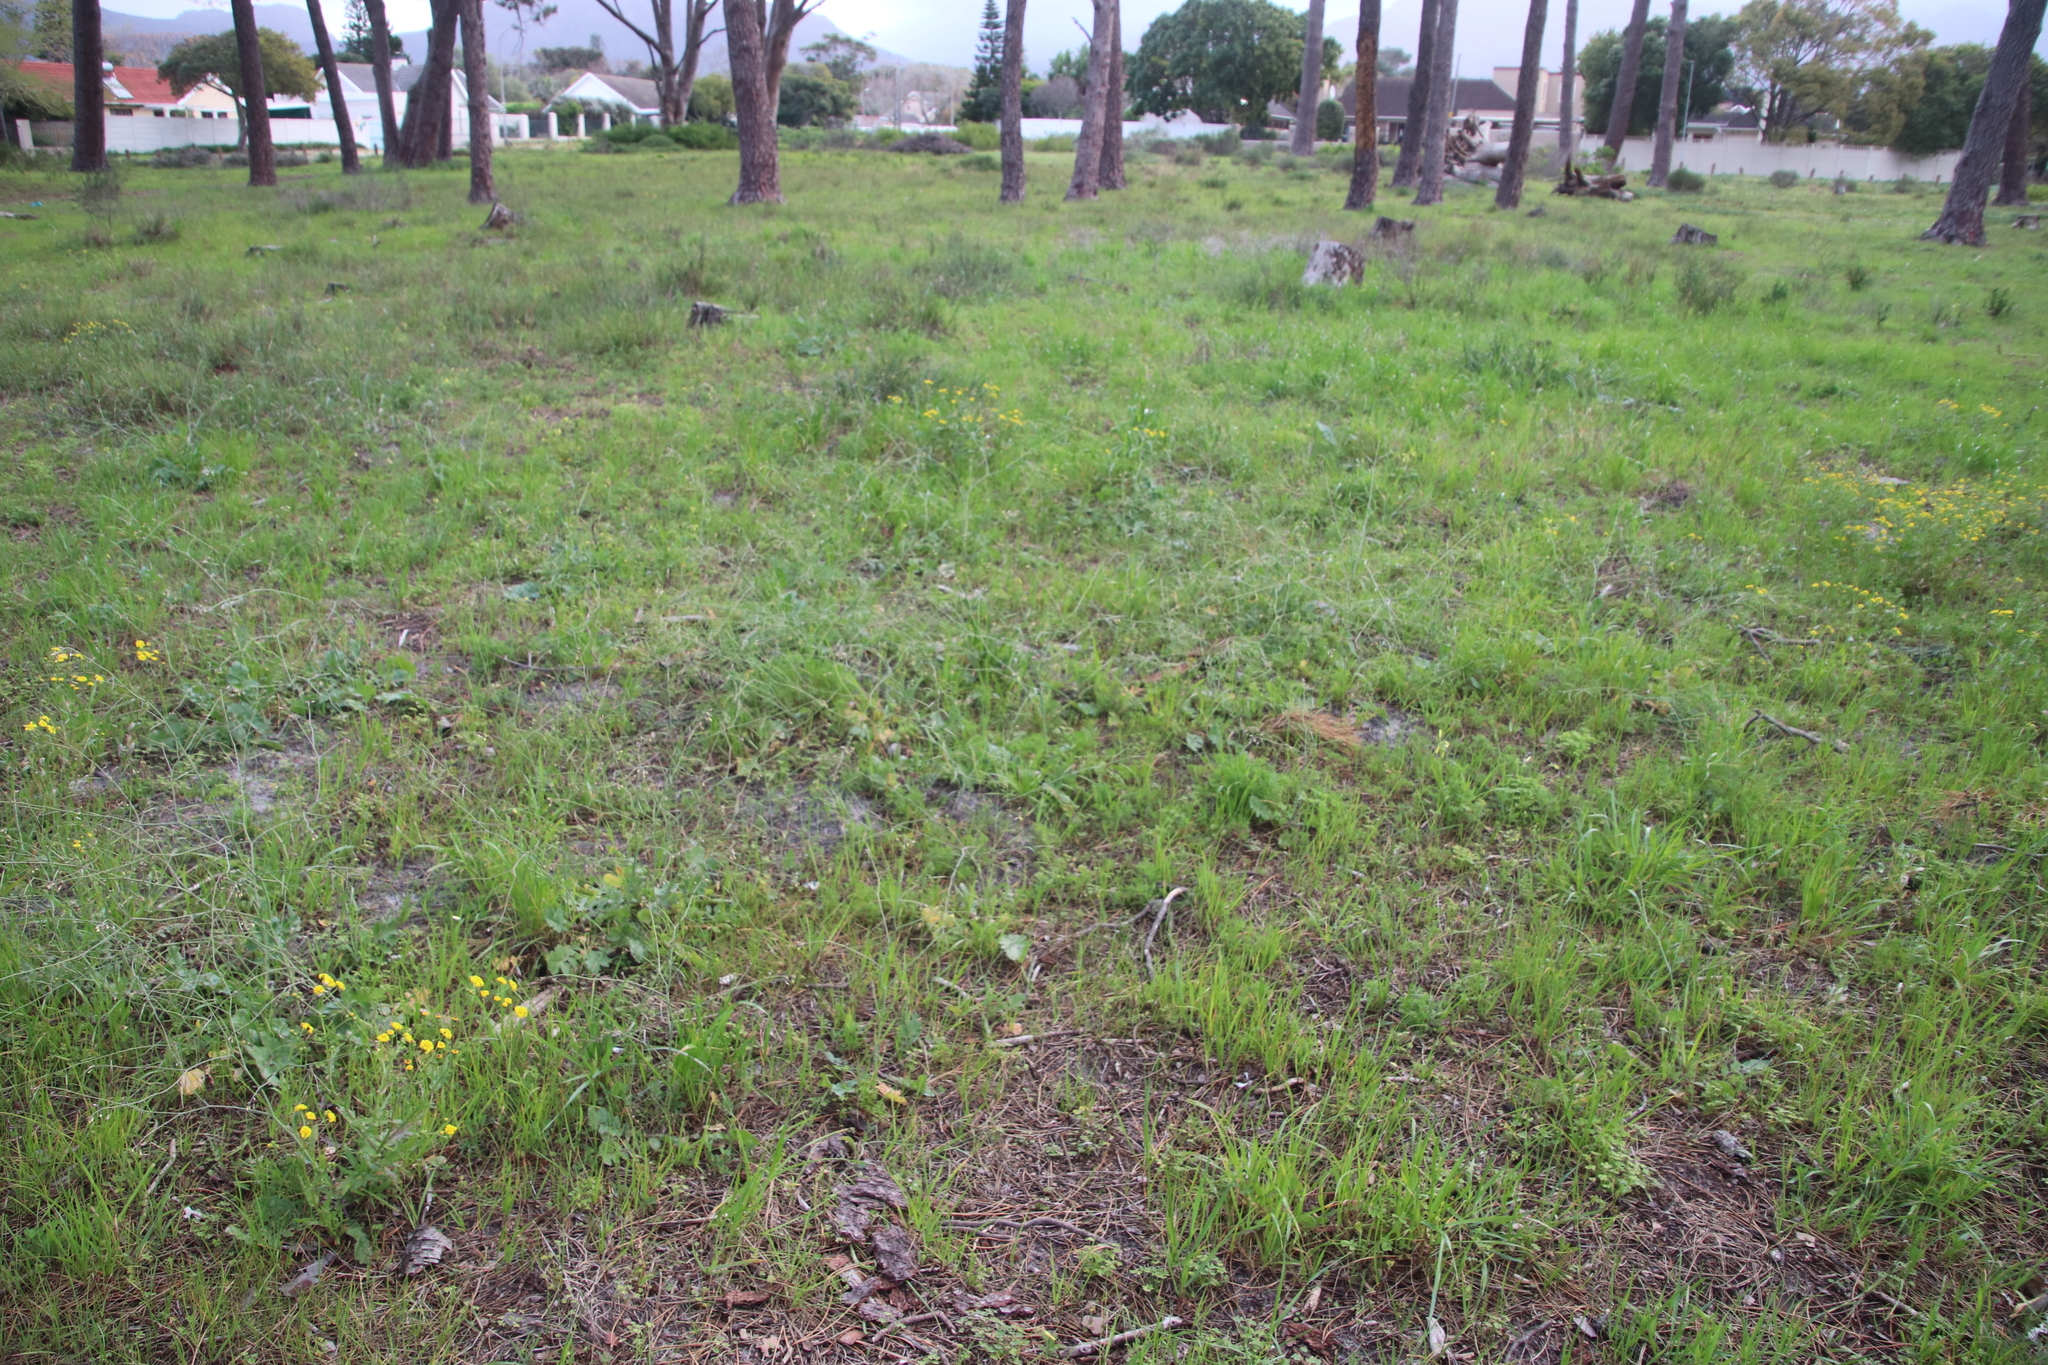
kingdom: Plantae
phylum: Tracheophyta
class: Magnoliopsida
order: Brassicales
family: Brassicaceae
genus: Brassica
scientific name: Brassica tournefortii
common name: Pale cabbage
